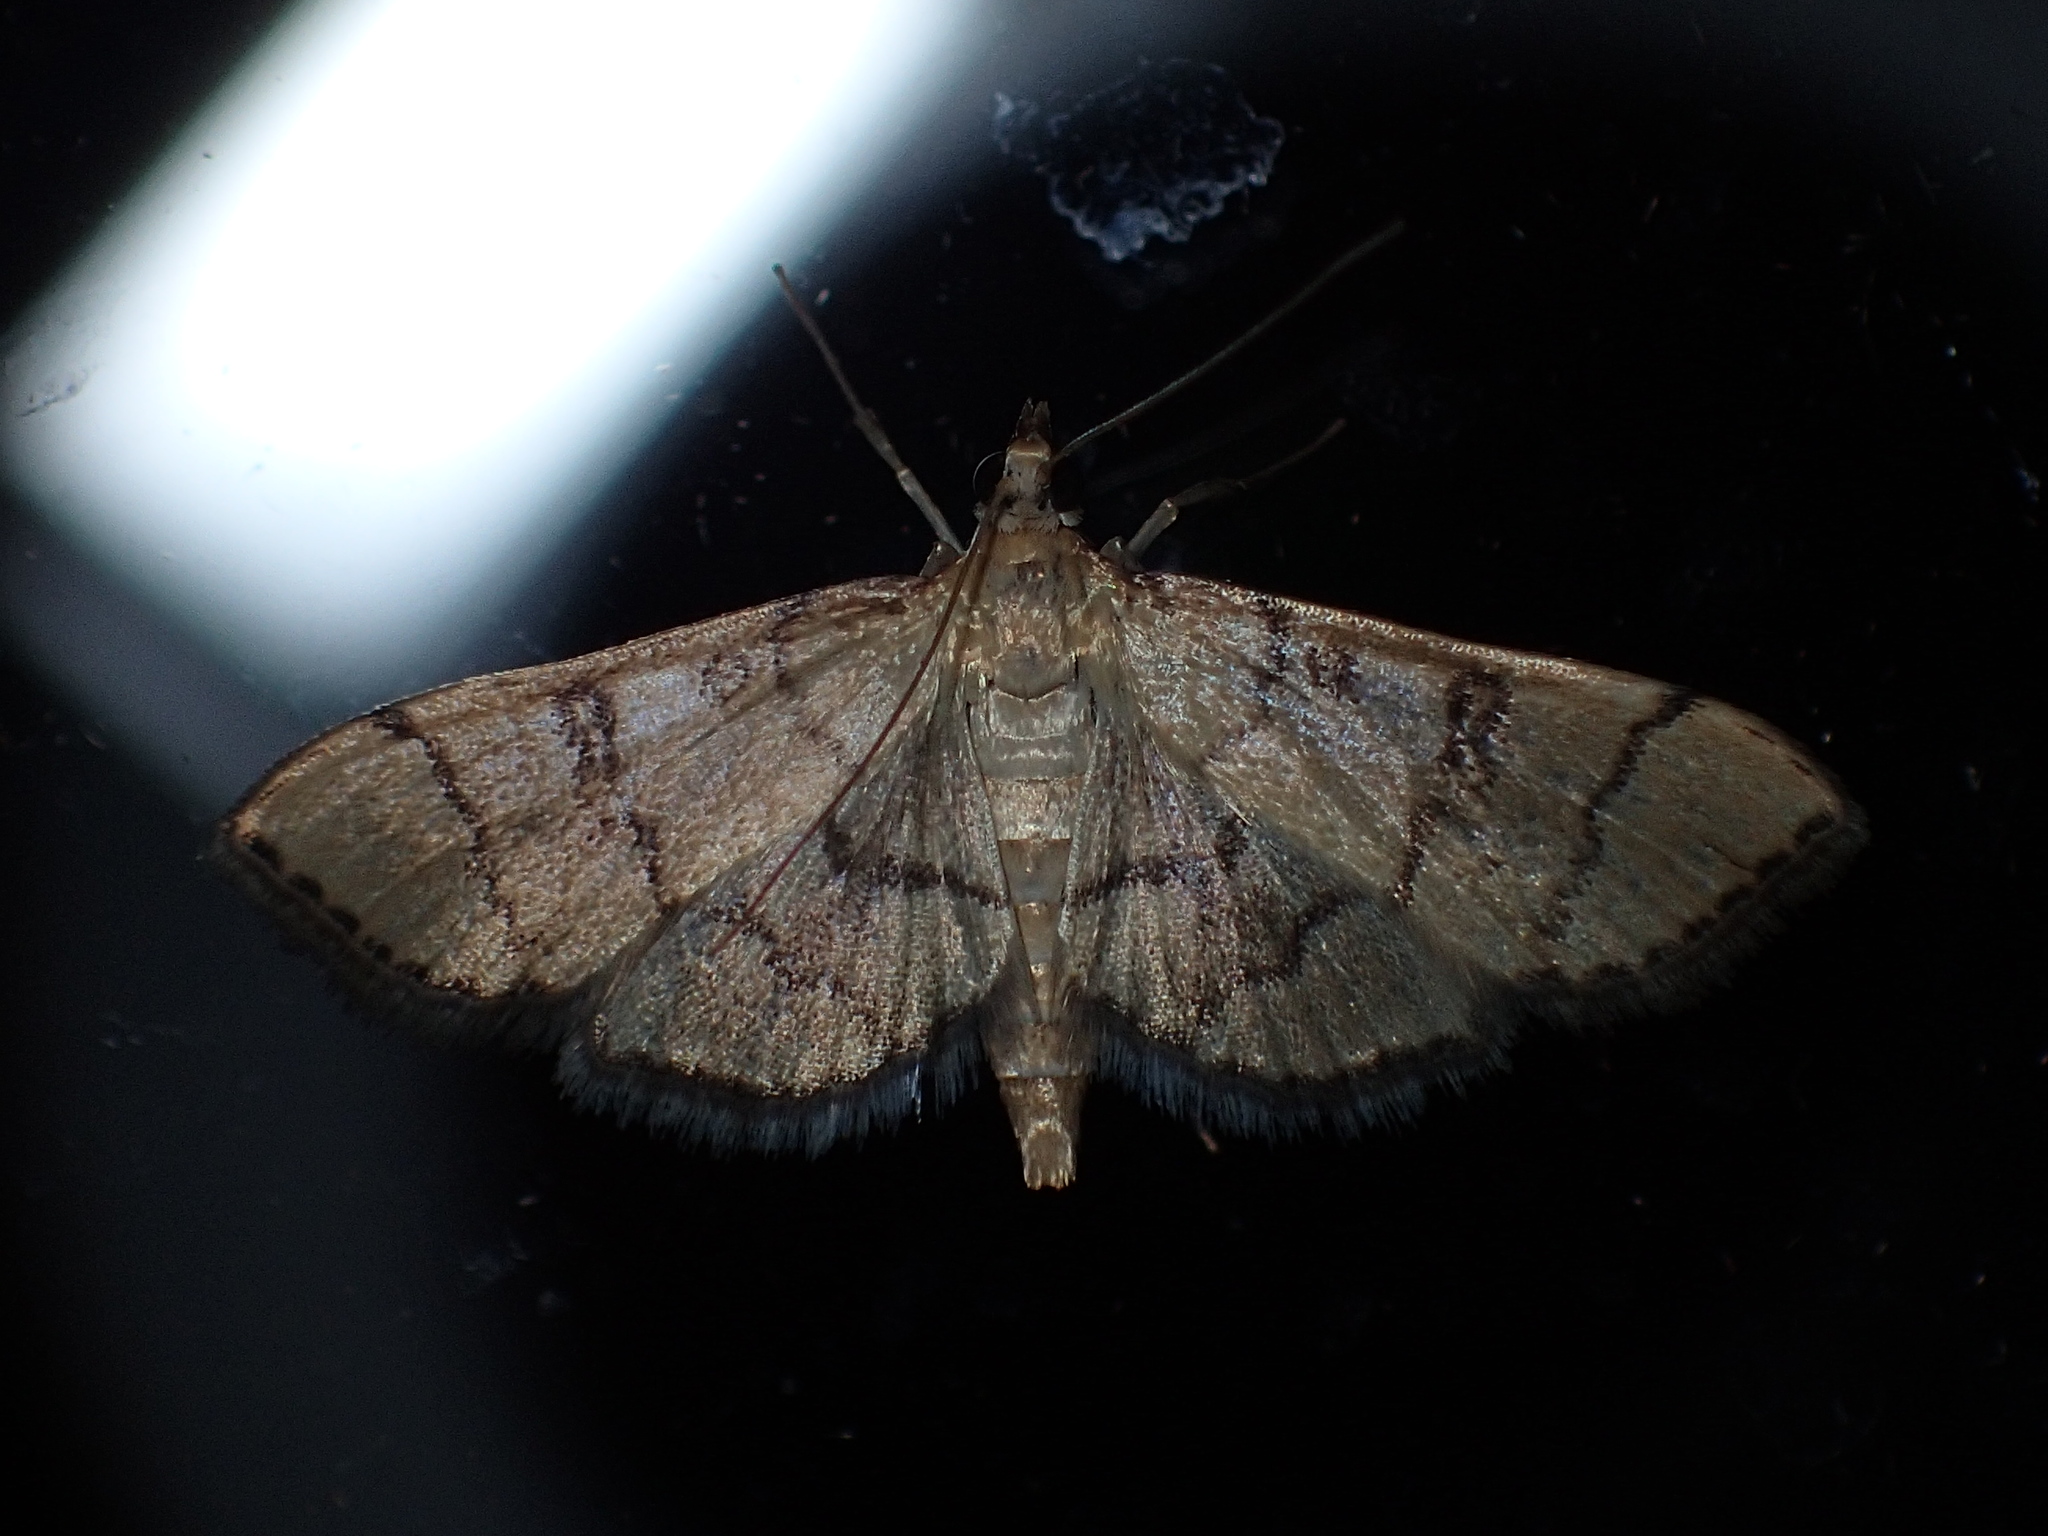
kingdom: Animalia
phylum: Arthropoda
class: Insecta
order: Lepidoptera
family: Crambidae
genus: Lamprosema
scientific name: Lamprosema Blepharomastix ranalis
